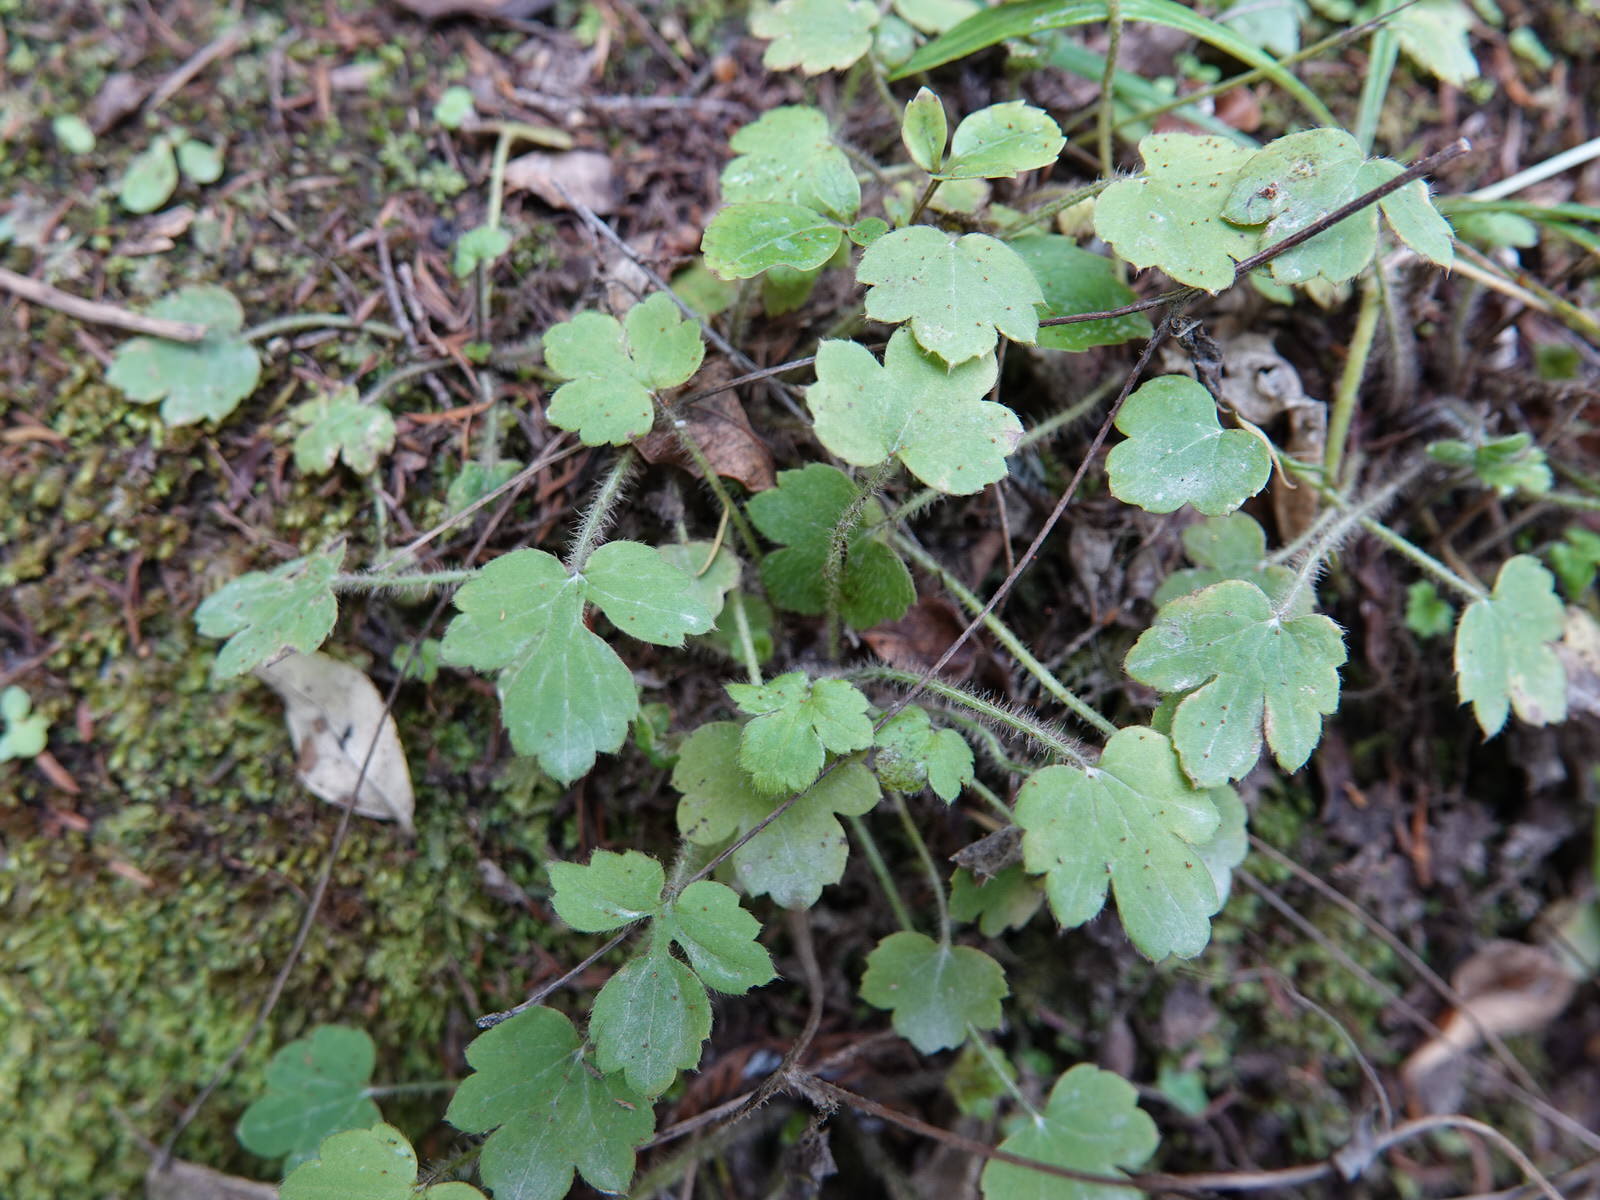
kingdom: Plantae
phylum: Tracheophyta
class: Magnoliopsida
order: Ranunculales
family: Ranunculaceae
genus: Ranunculus
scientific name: Ranunculus reflexus
